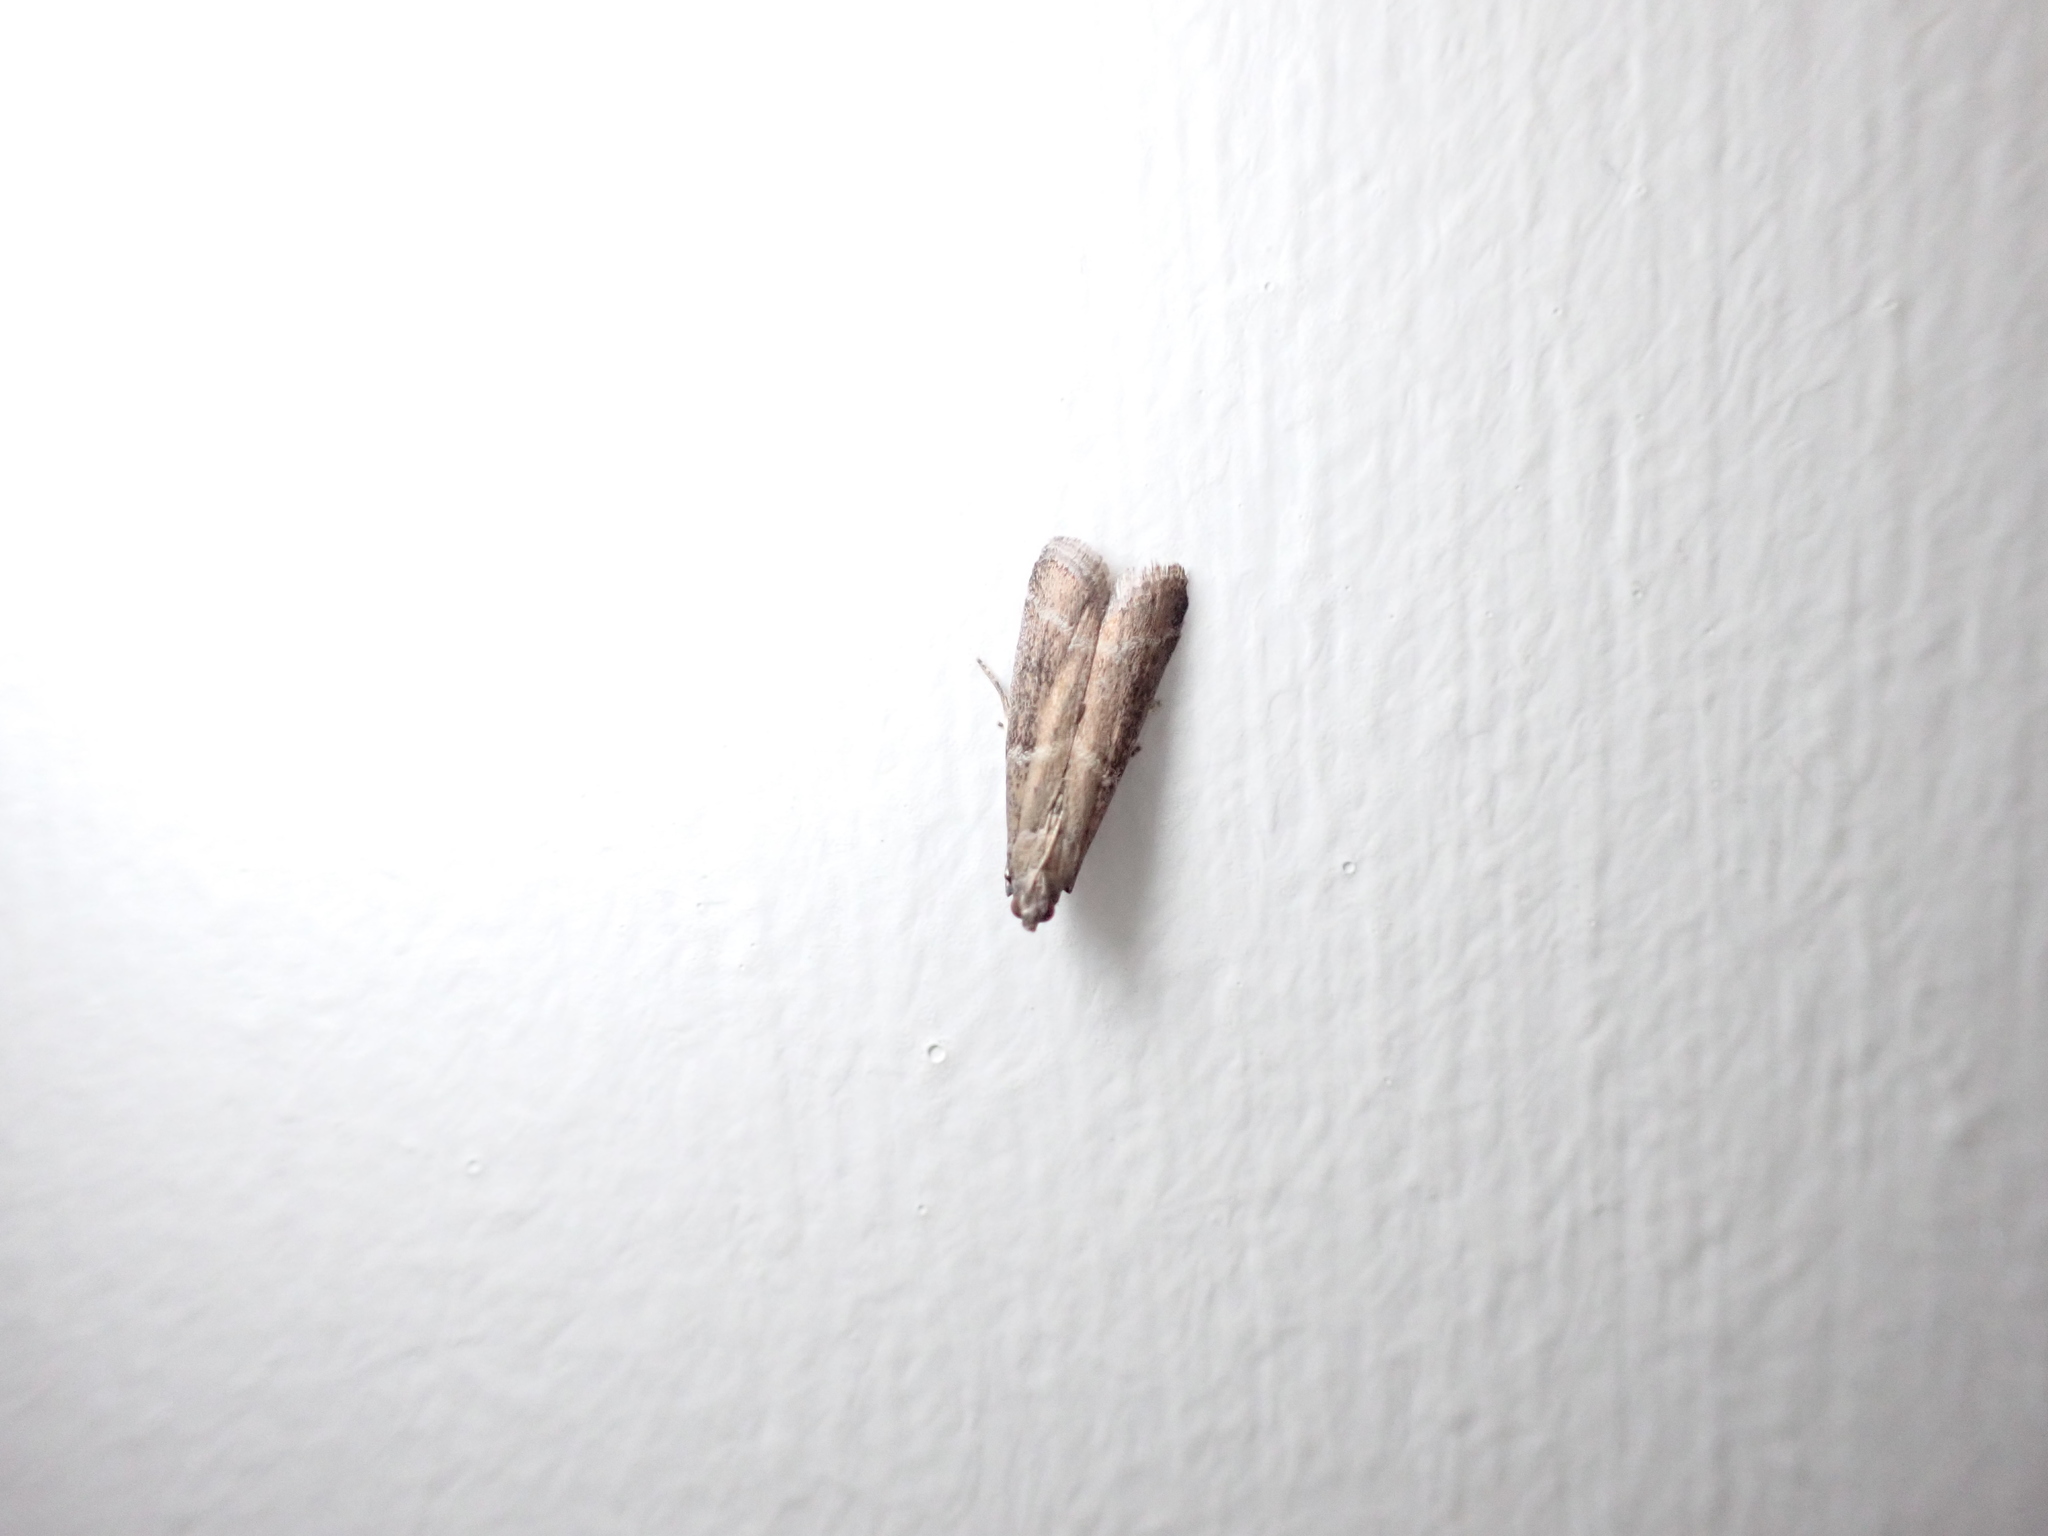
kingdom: Animalia
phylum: Arthropoda
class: Insecta
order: Lepidoptera
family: Pyralidae
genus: Ephestia
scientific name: Ephestia elutella
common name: Cacao moth
